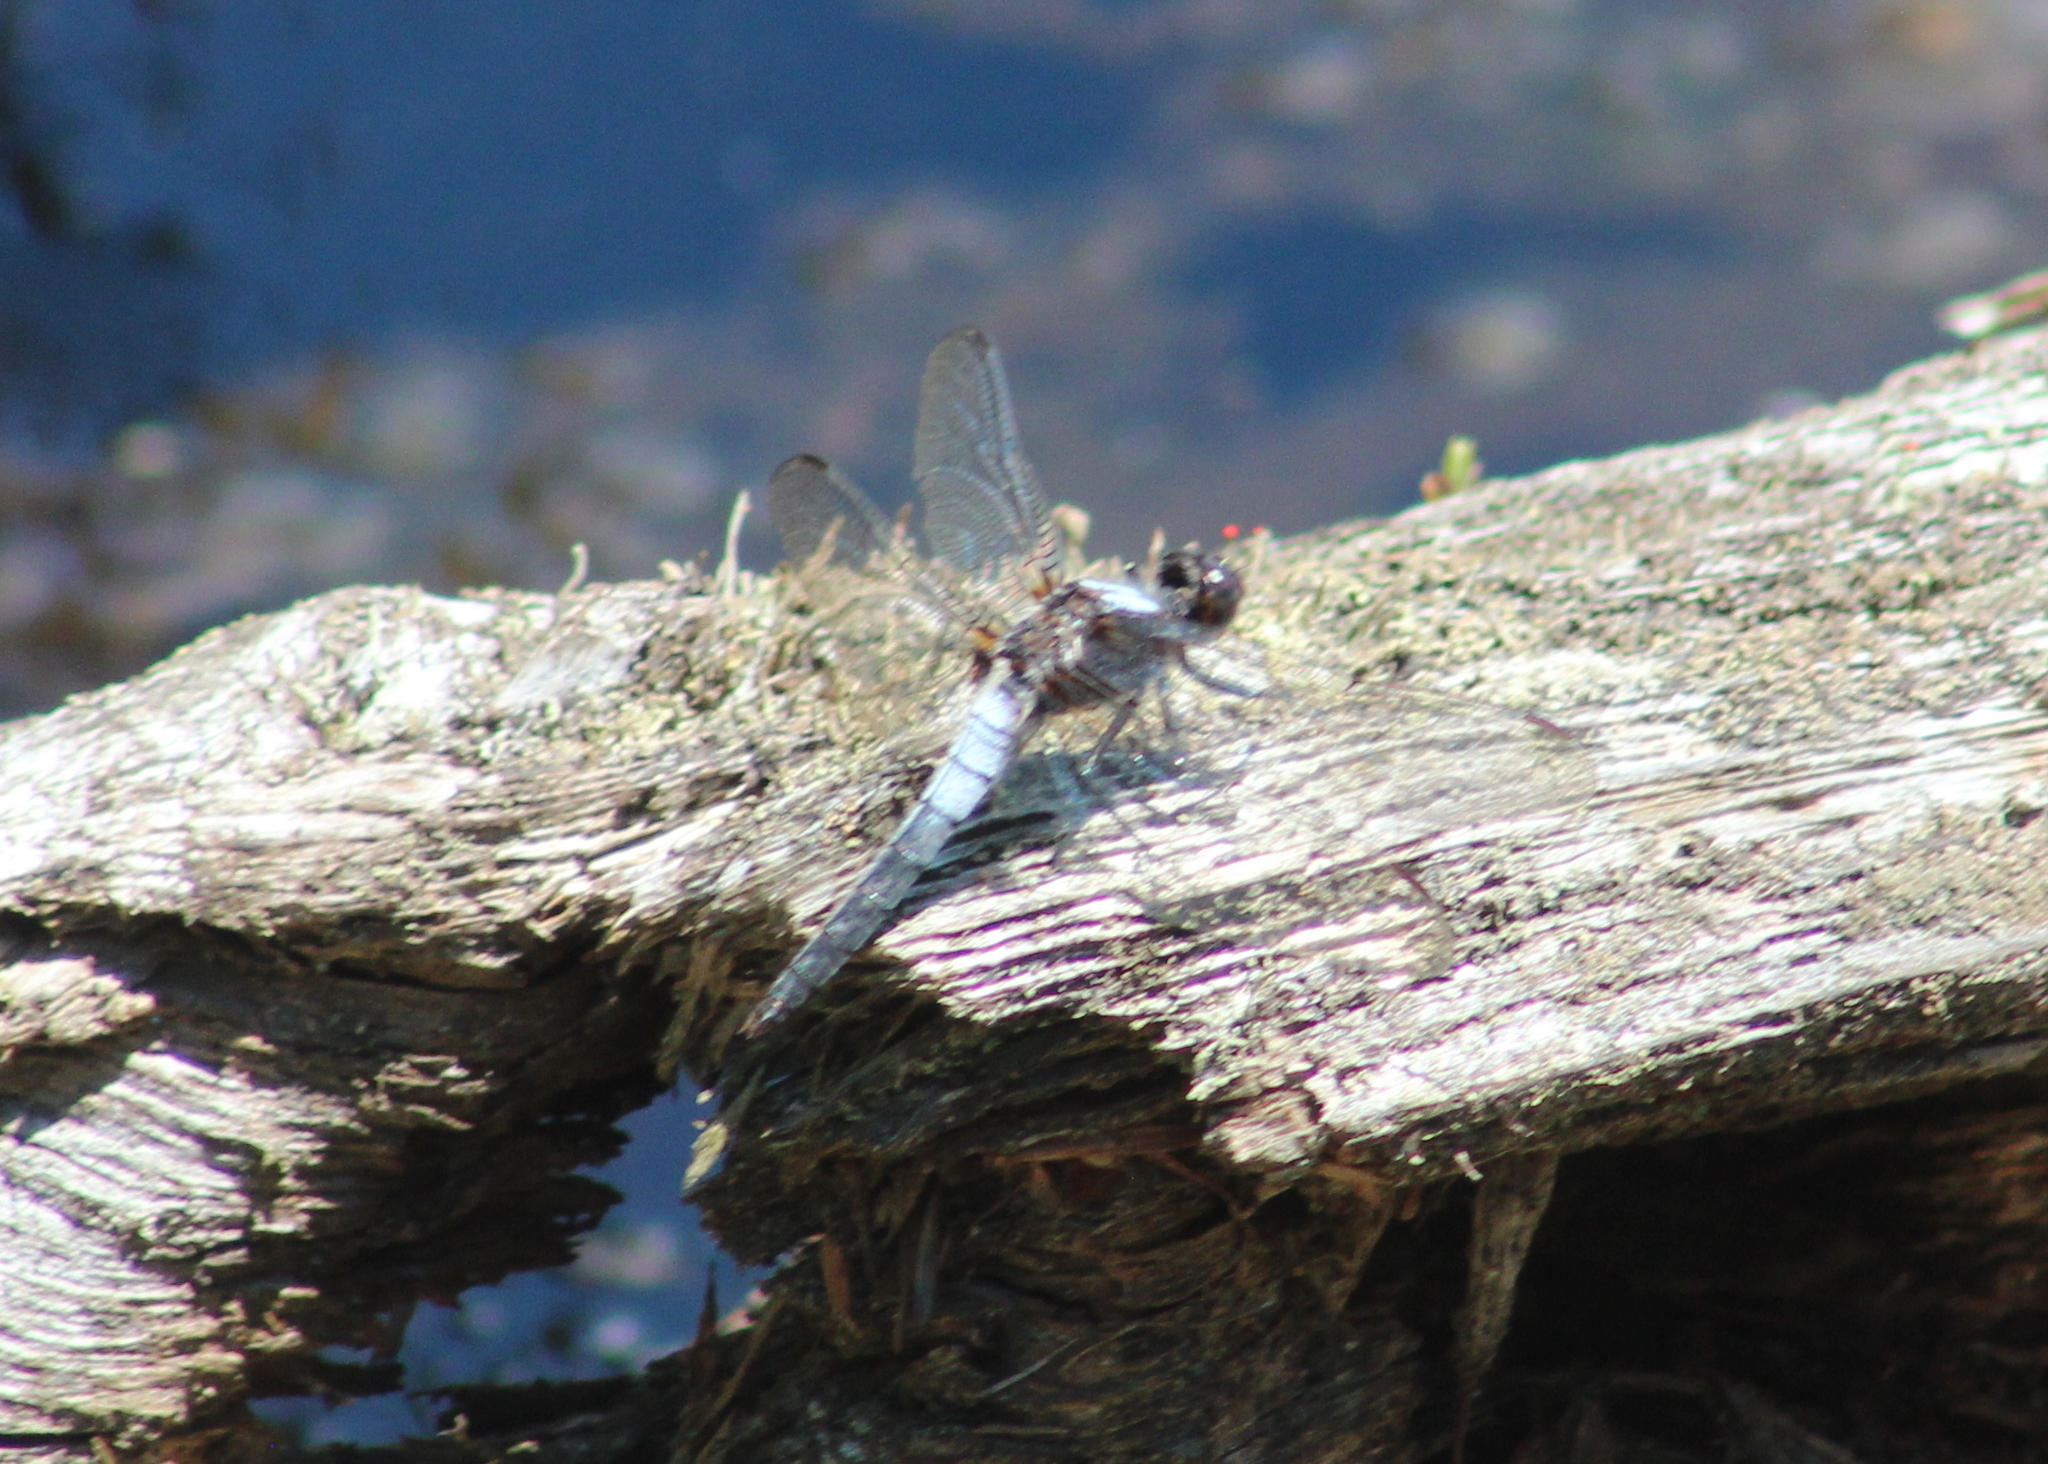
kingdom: Animalia
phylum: Arthropoda
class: Insecta
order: Odonata
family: Libellulidae
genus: Ladona
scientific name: Ladona julia
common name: Chalk-fronted corporal
